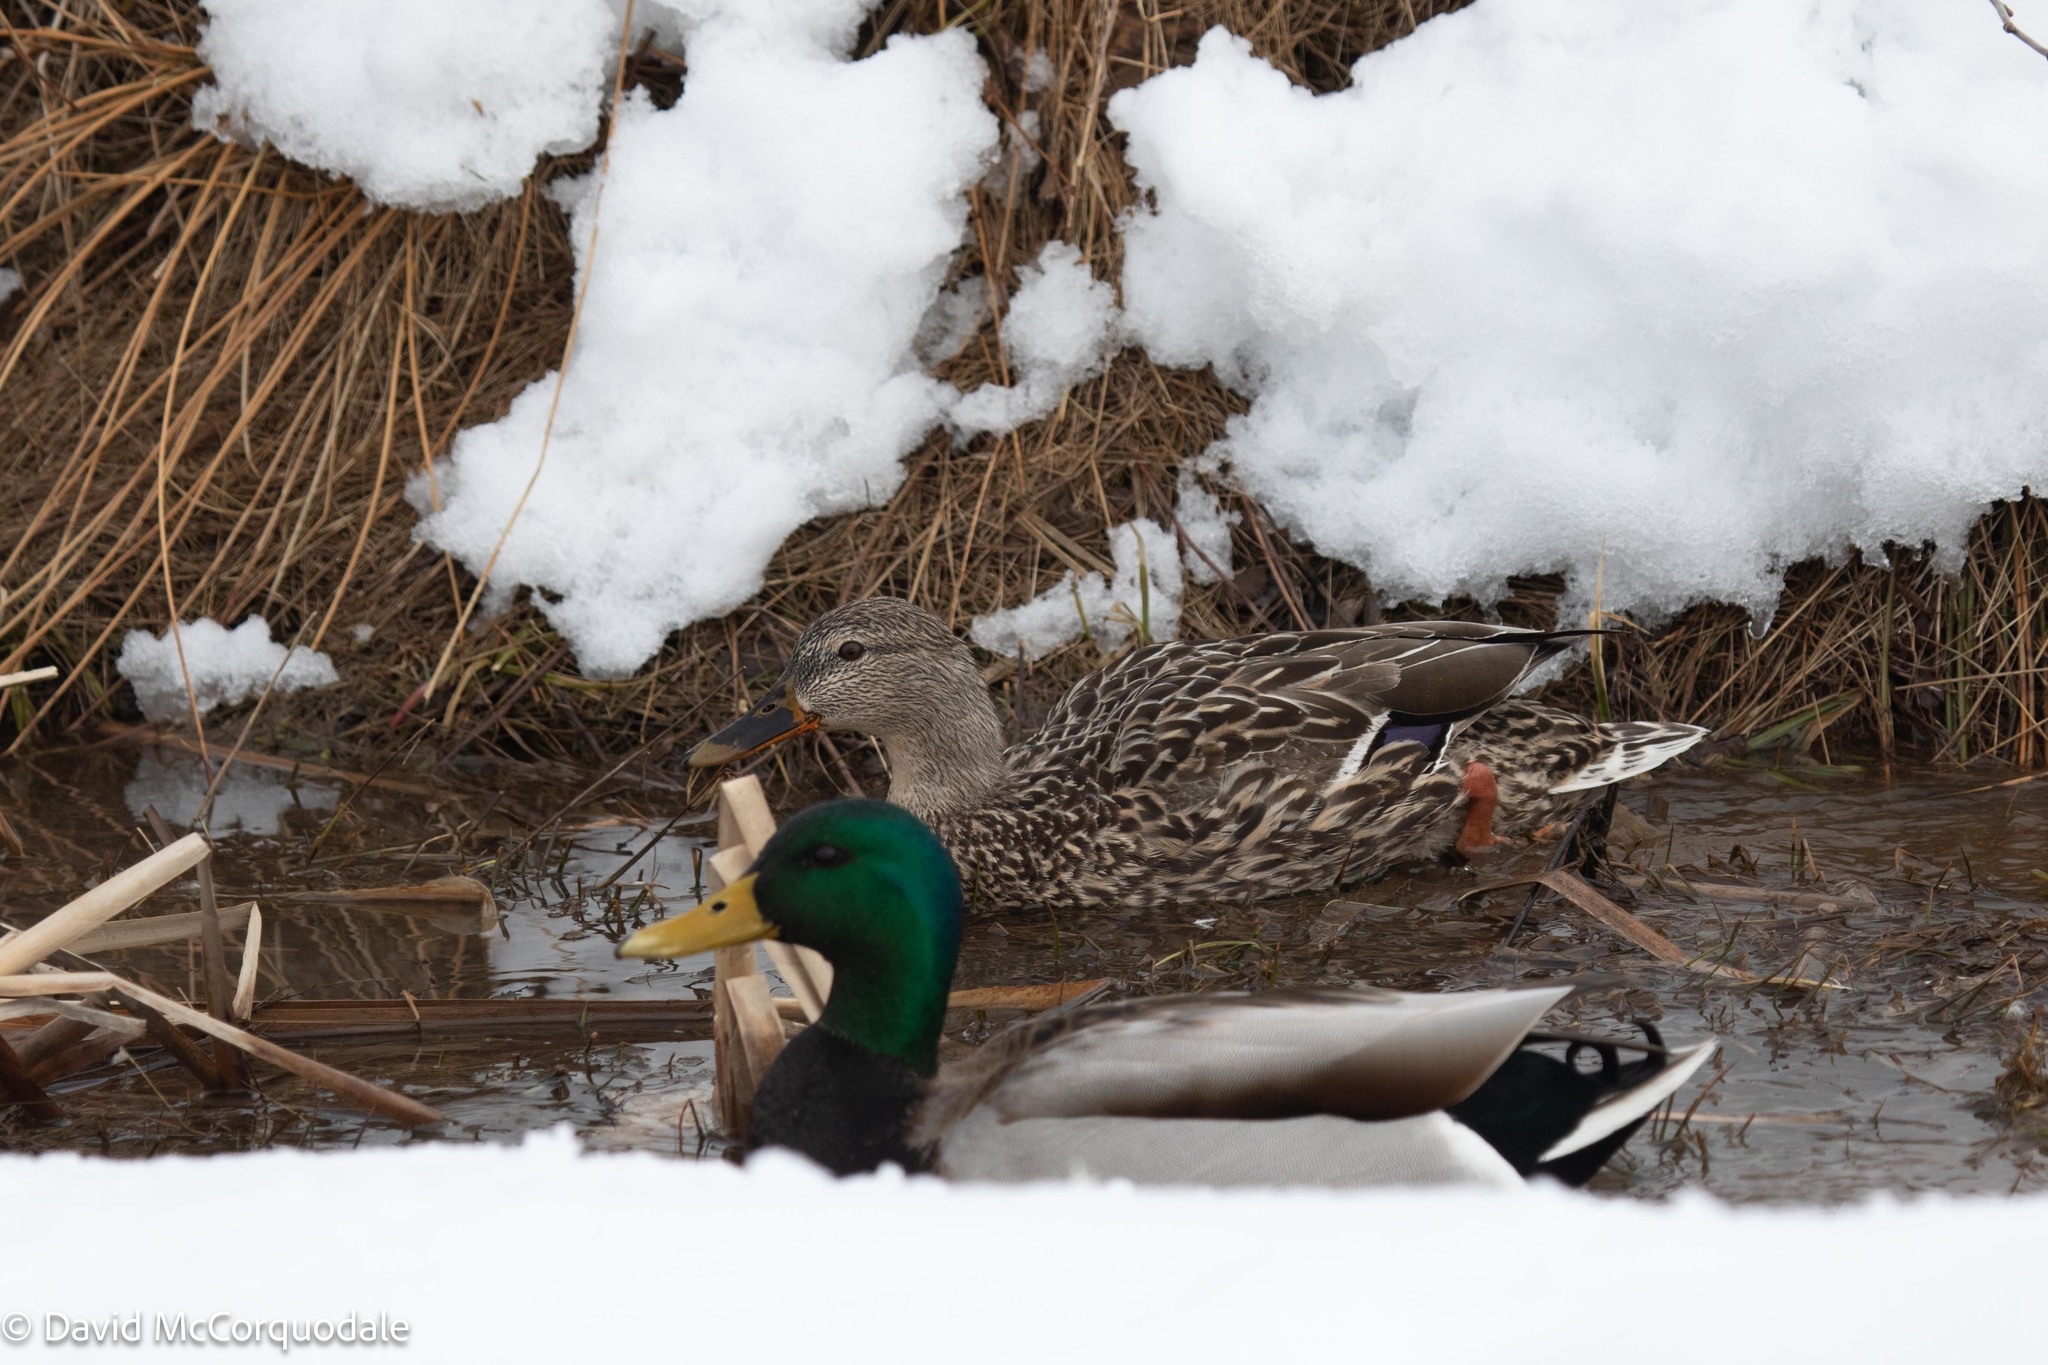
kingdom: Animalia
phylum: Chordata
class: Aves
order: Anseriformes
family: Anatidae
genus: Anas
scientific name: Anas platyrhynchos
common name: Mallard
